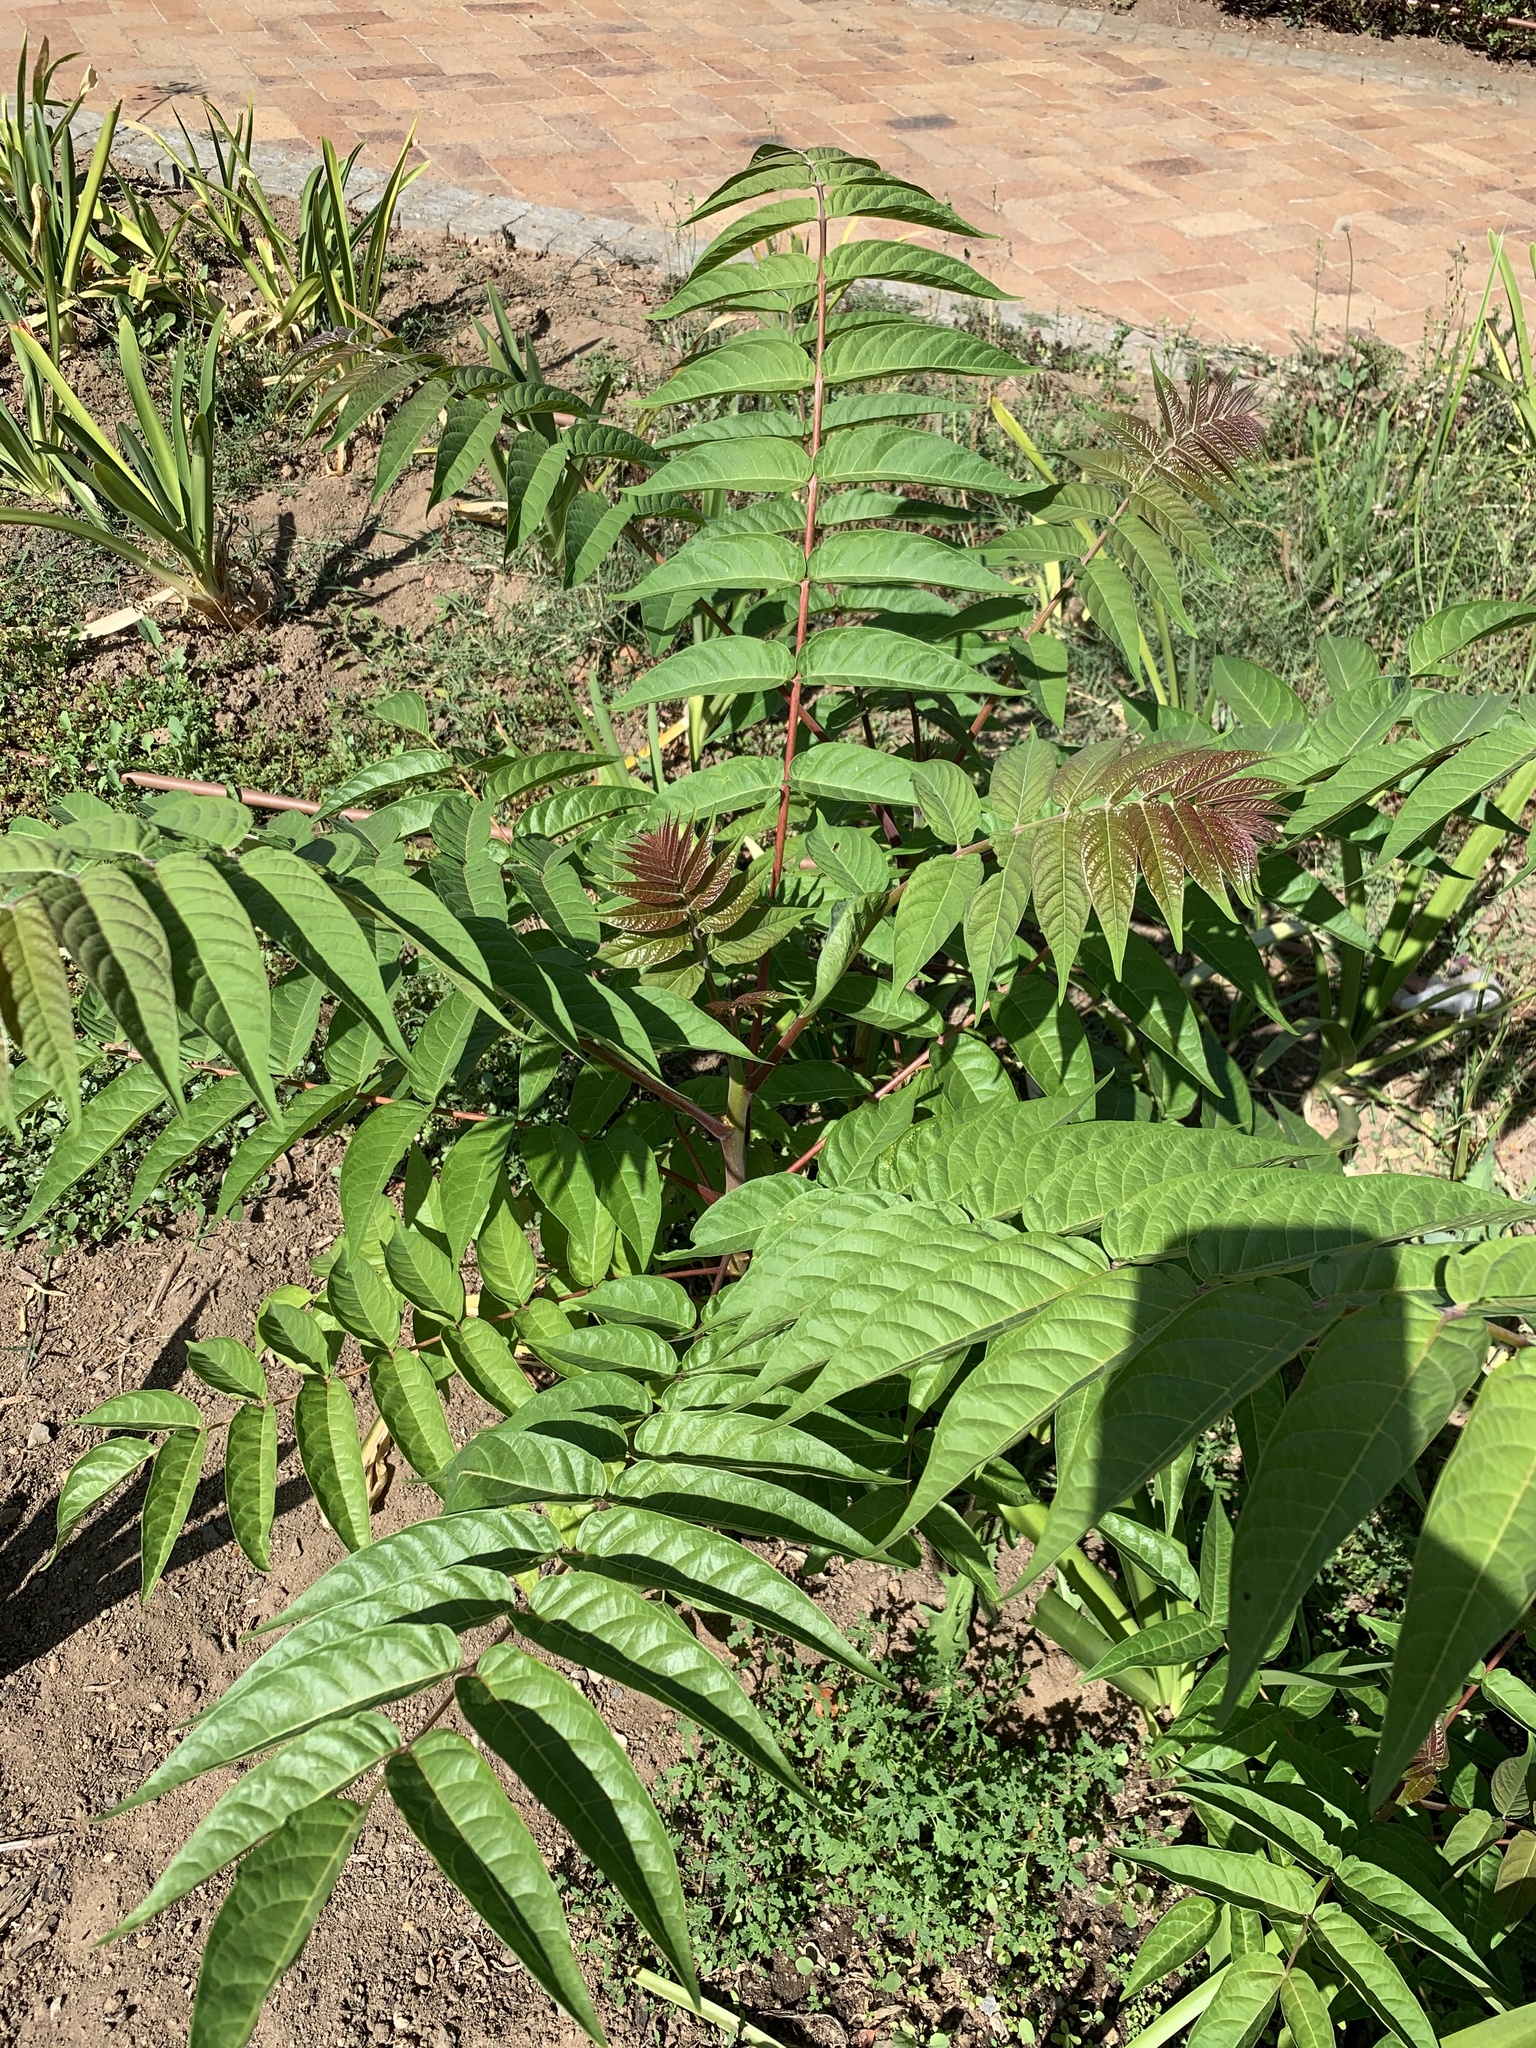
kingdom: Plantae
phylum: Tracheophyta
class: Magnoliopsida
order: Sapindales
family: Simaroubaceae
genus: Ailanthus
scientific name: Ailanthus altissima
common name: Tree-of-heaven
